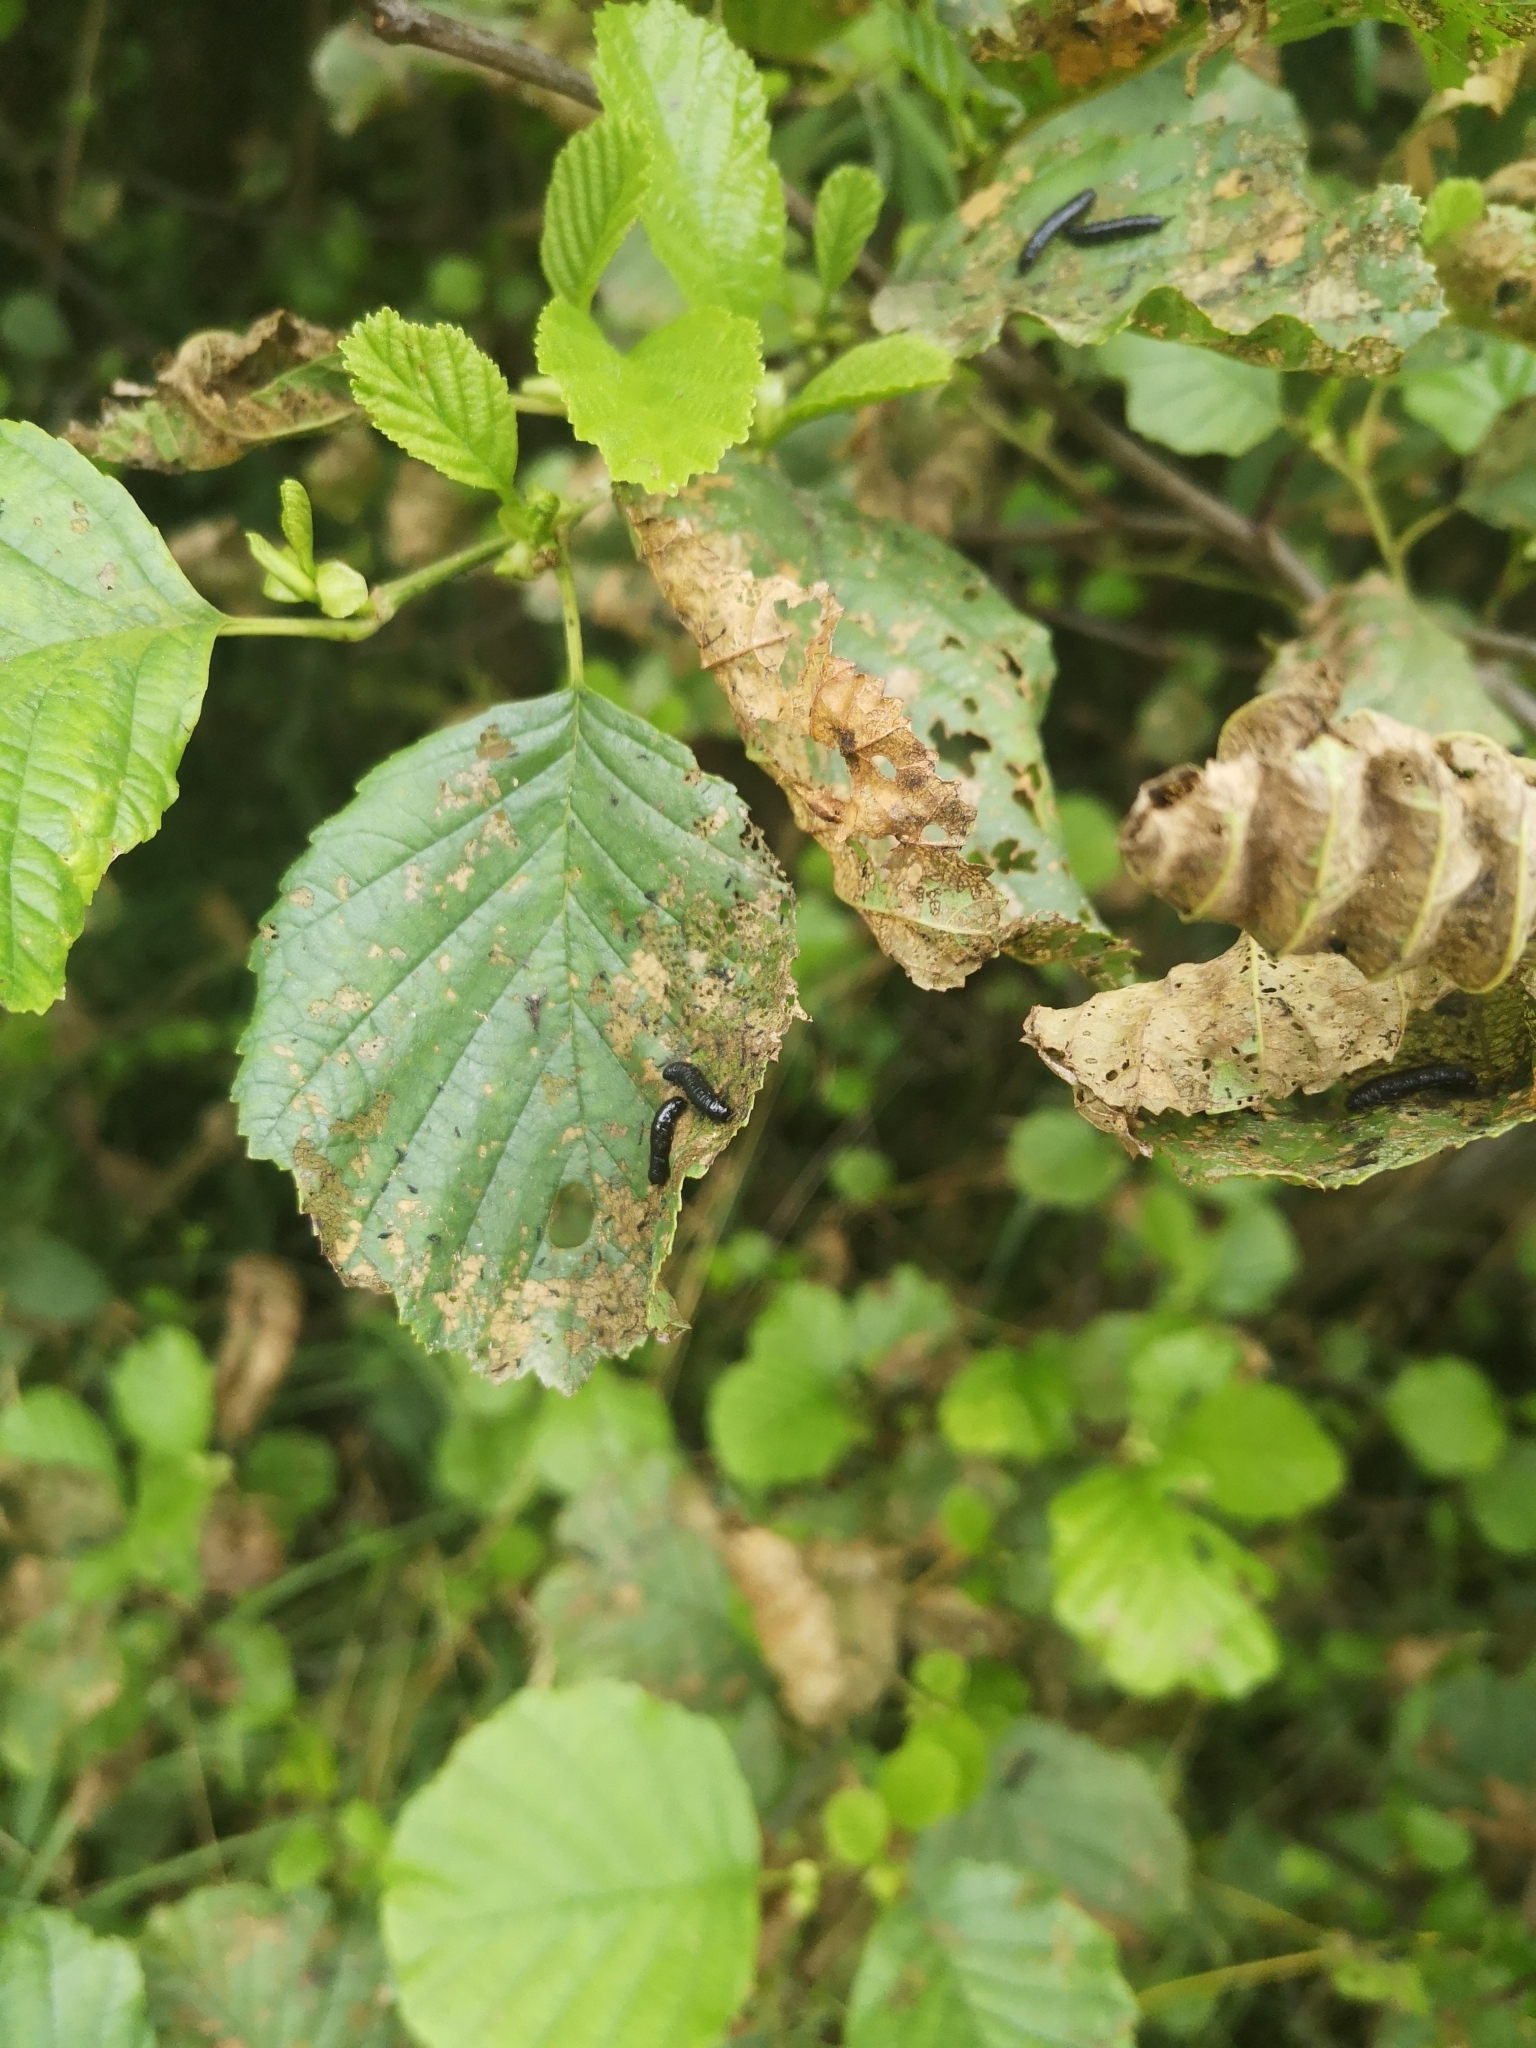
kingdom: Animalia
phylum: Arthropoda
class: Insecta
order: Coleoptera
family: Chrysomelidae
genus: Agelastica
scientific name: Agelastica alni
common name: Alder leaf beetle
